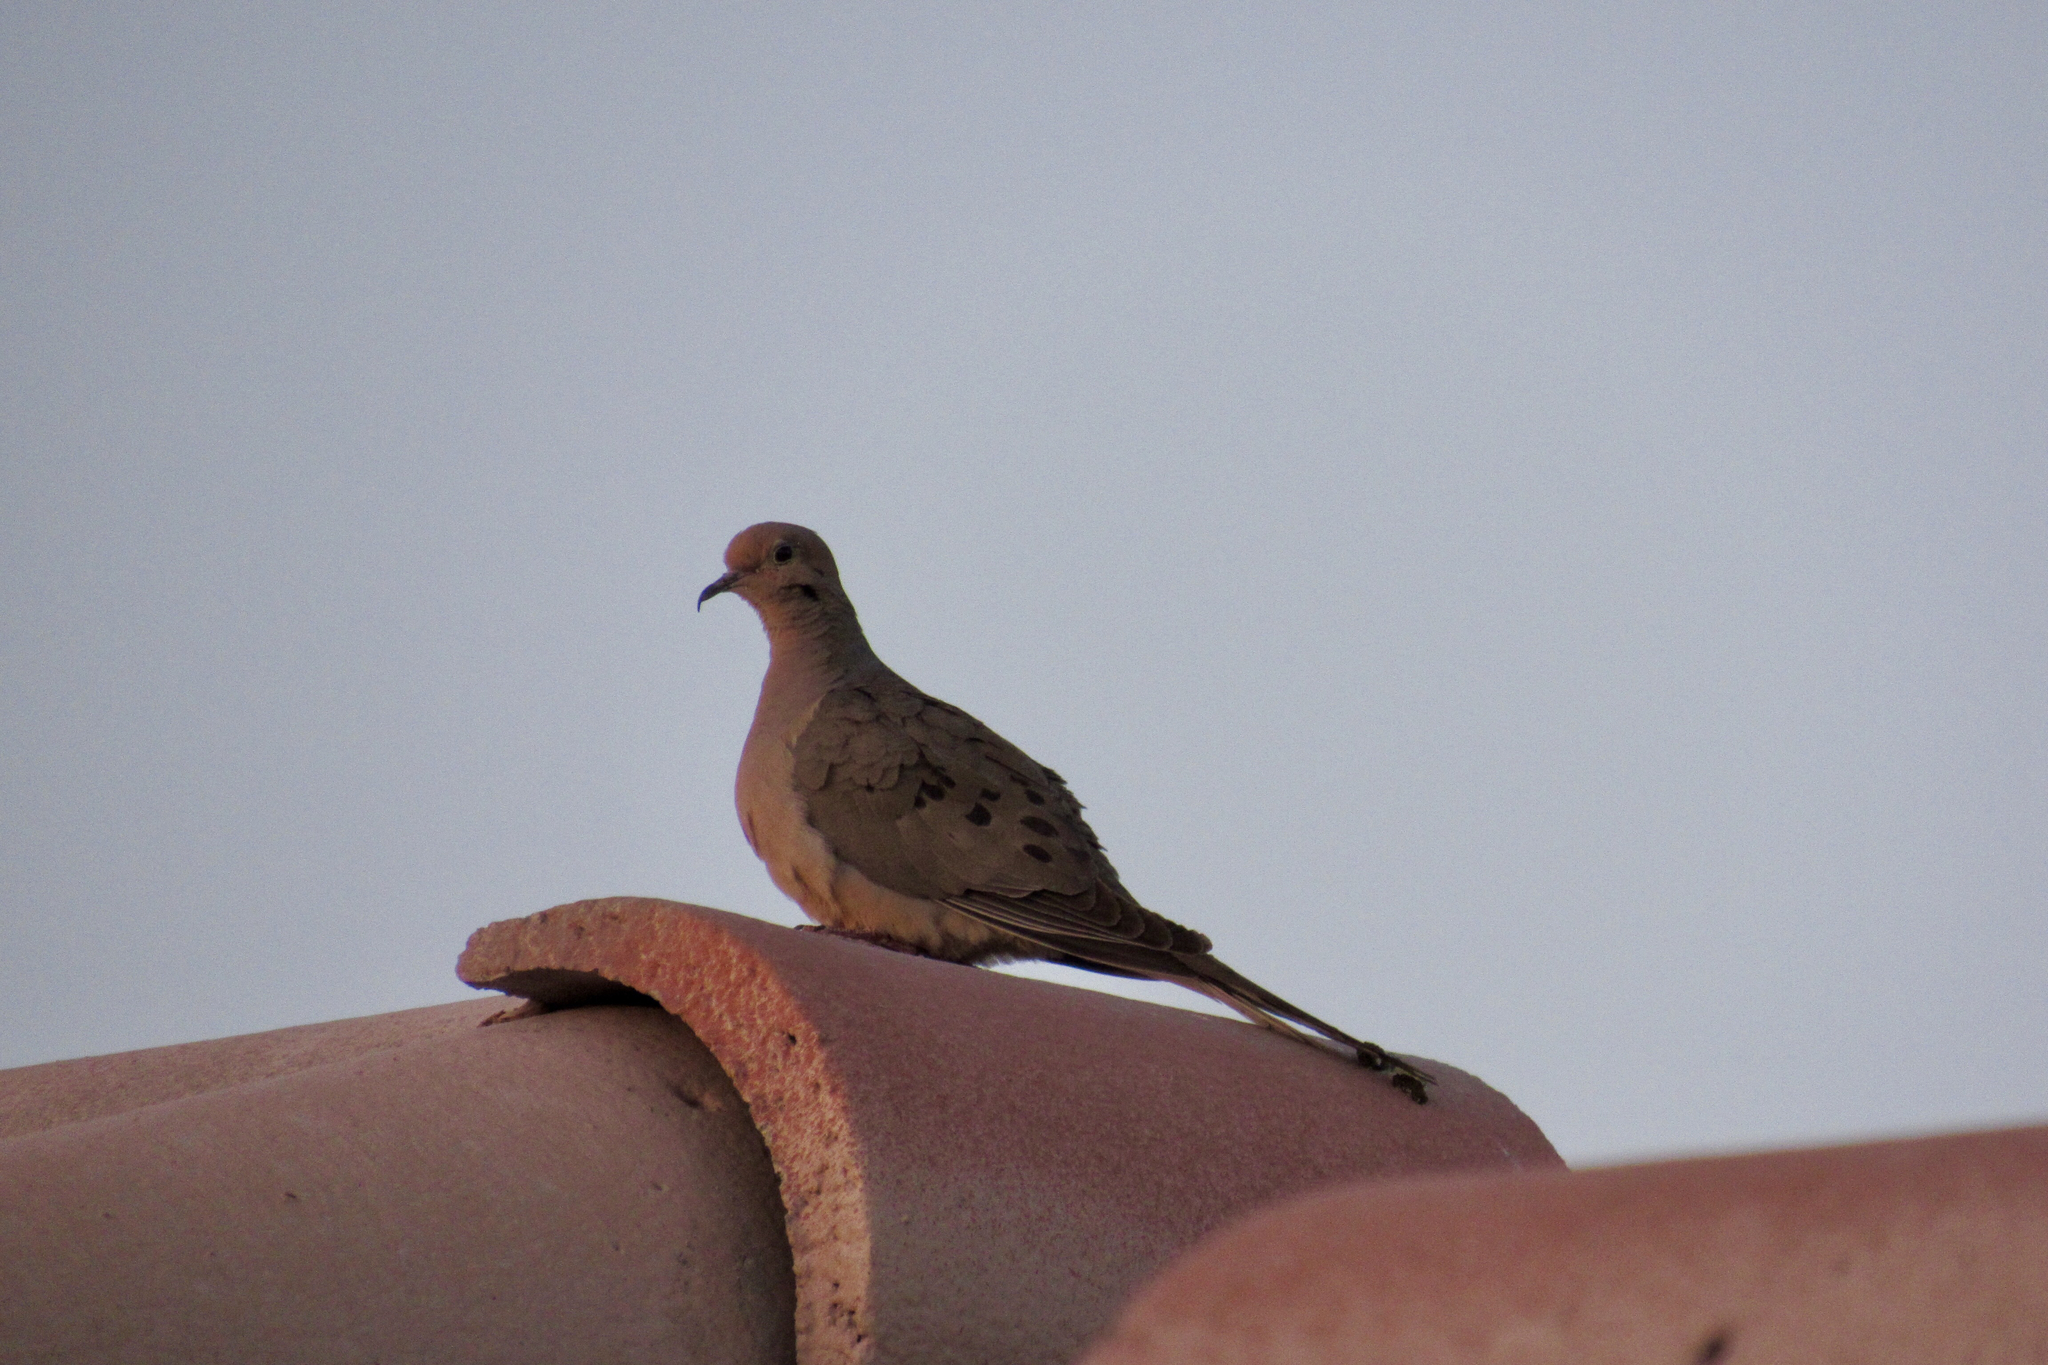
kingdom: Animalia
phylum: Chordata
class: Aves
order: Columbiformes
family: Columbidae
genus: Zenaida
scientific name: Zenaida macroura
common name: Mourning dove
